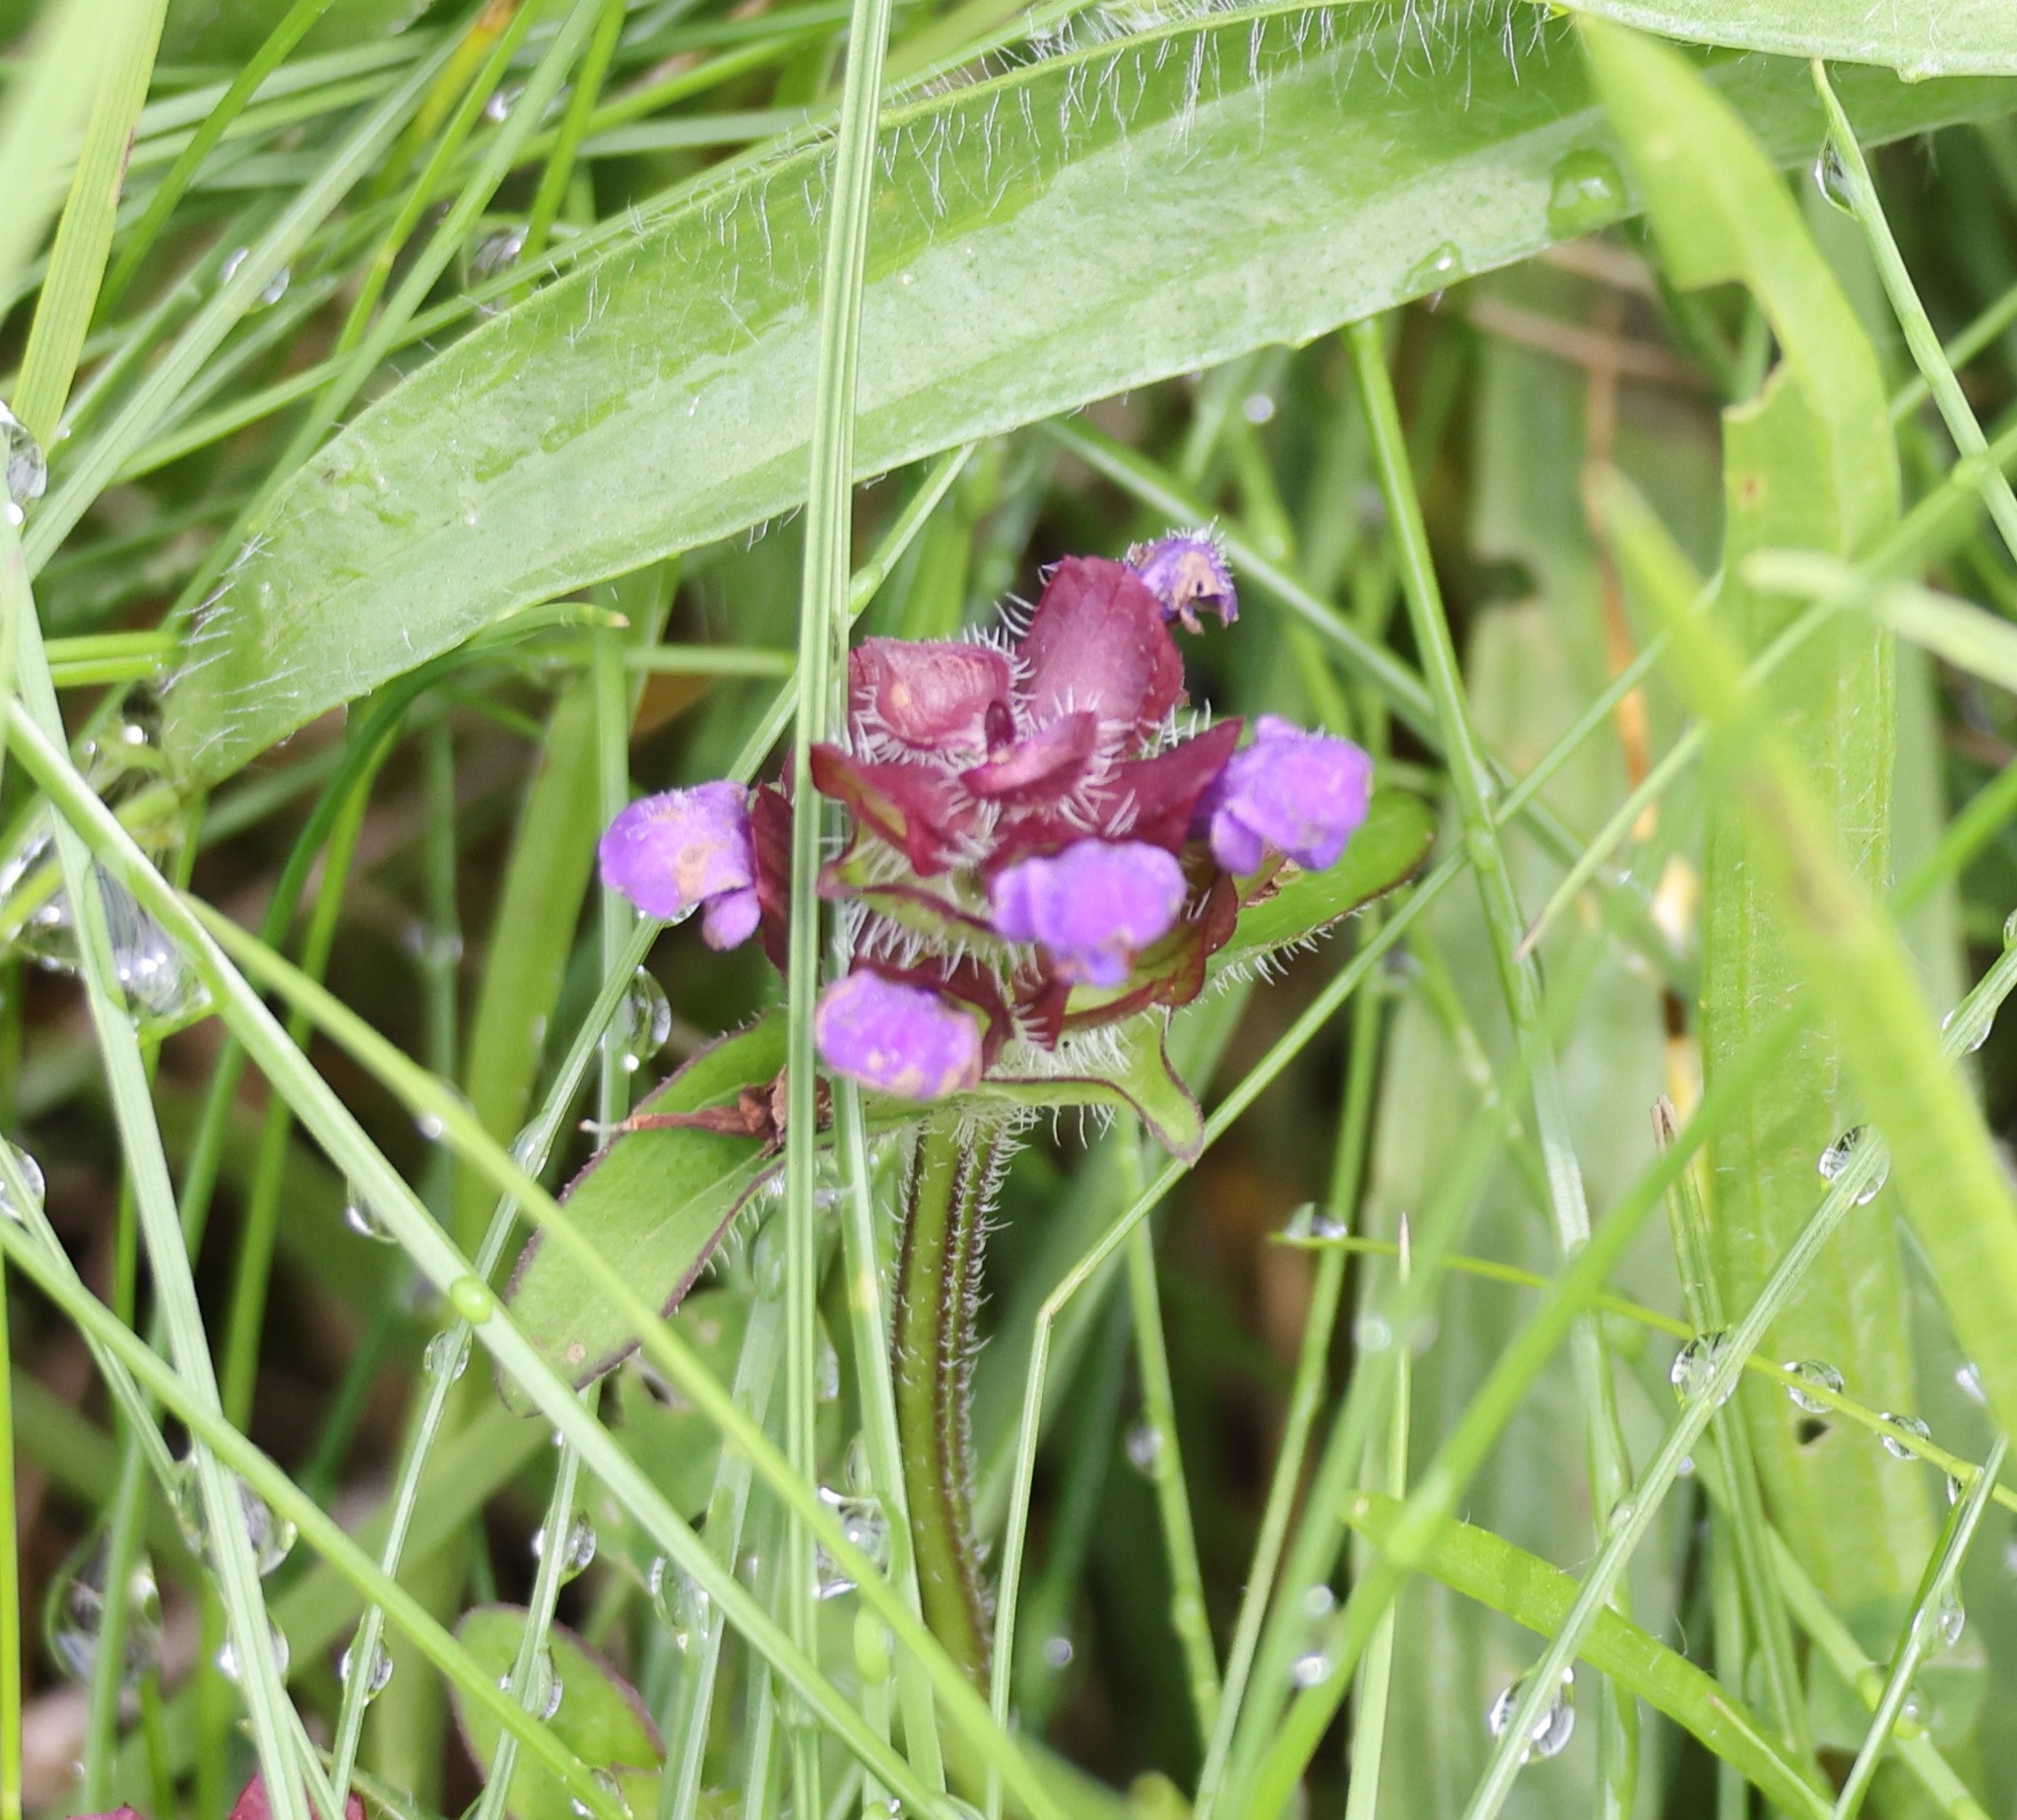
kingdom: Plantae
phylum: Tracheophyta
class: Magnoliopsida
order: Lamiales
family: Lamiaceae
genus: Prunella
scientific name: Prunella vulgaris
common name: Heal-all
